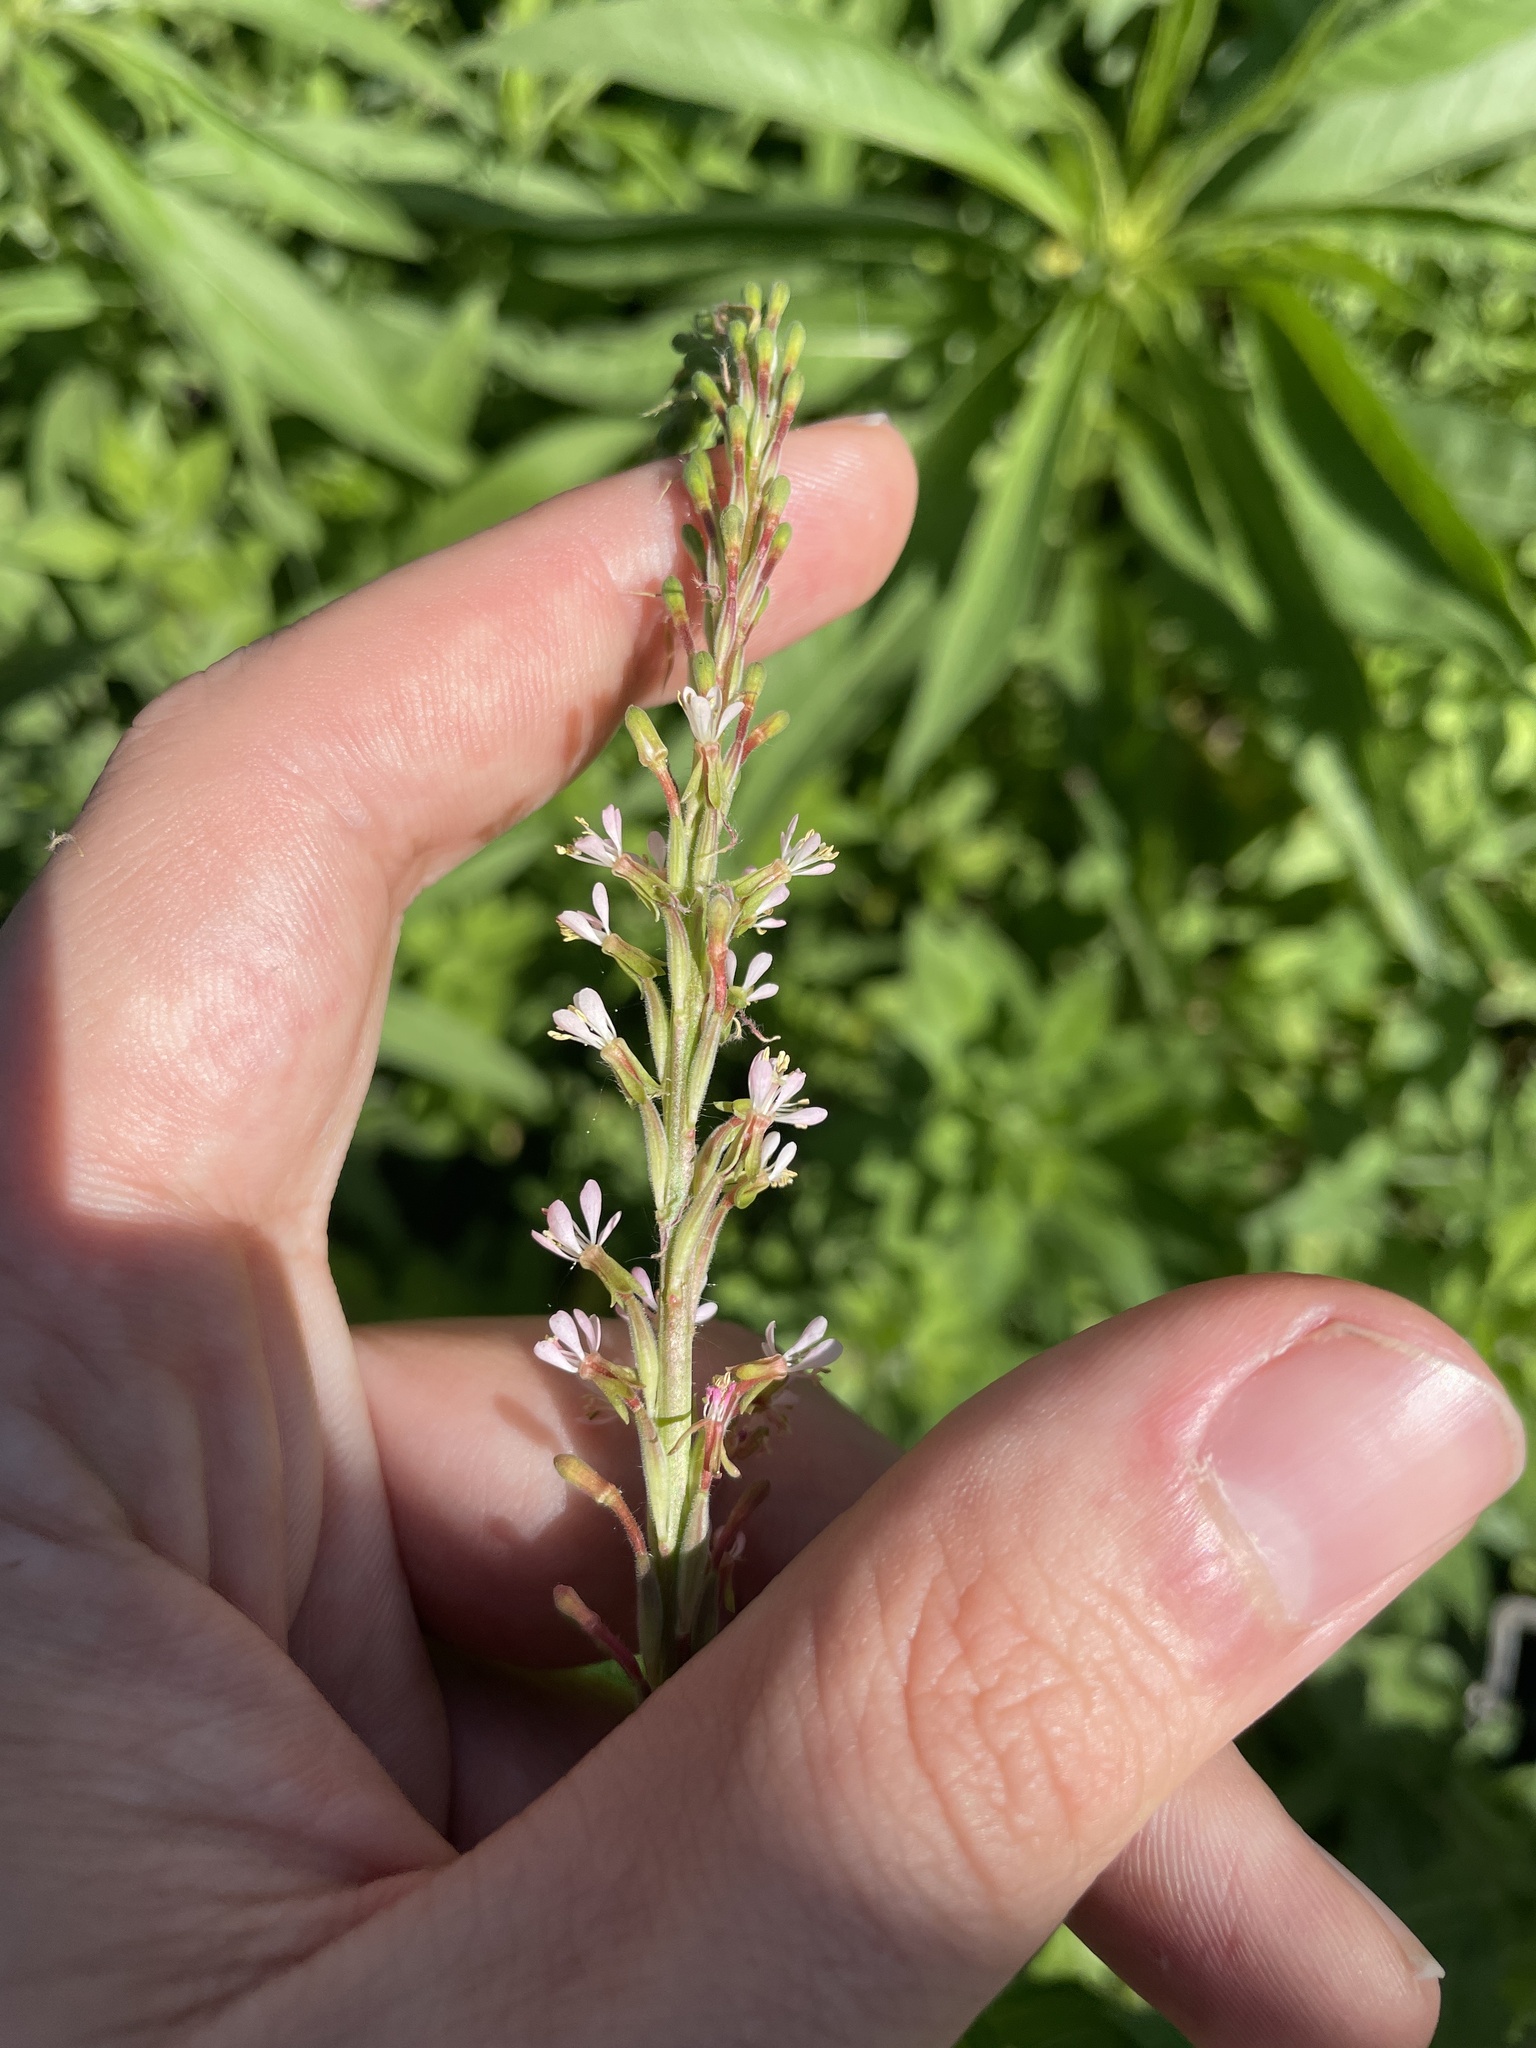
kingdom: Plantae
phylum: Tracheophyta
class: Magnoliopsida
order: Myrtales
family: Onagraceae
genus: Oenothera
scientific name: Oenothera curtiflora
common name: Velvetweed
